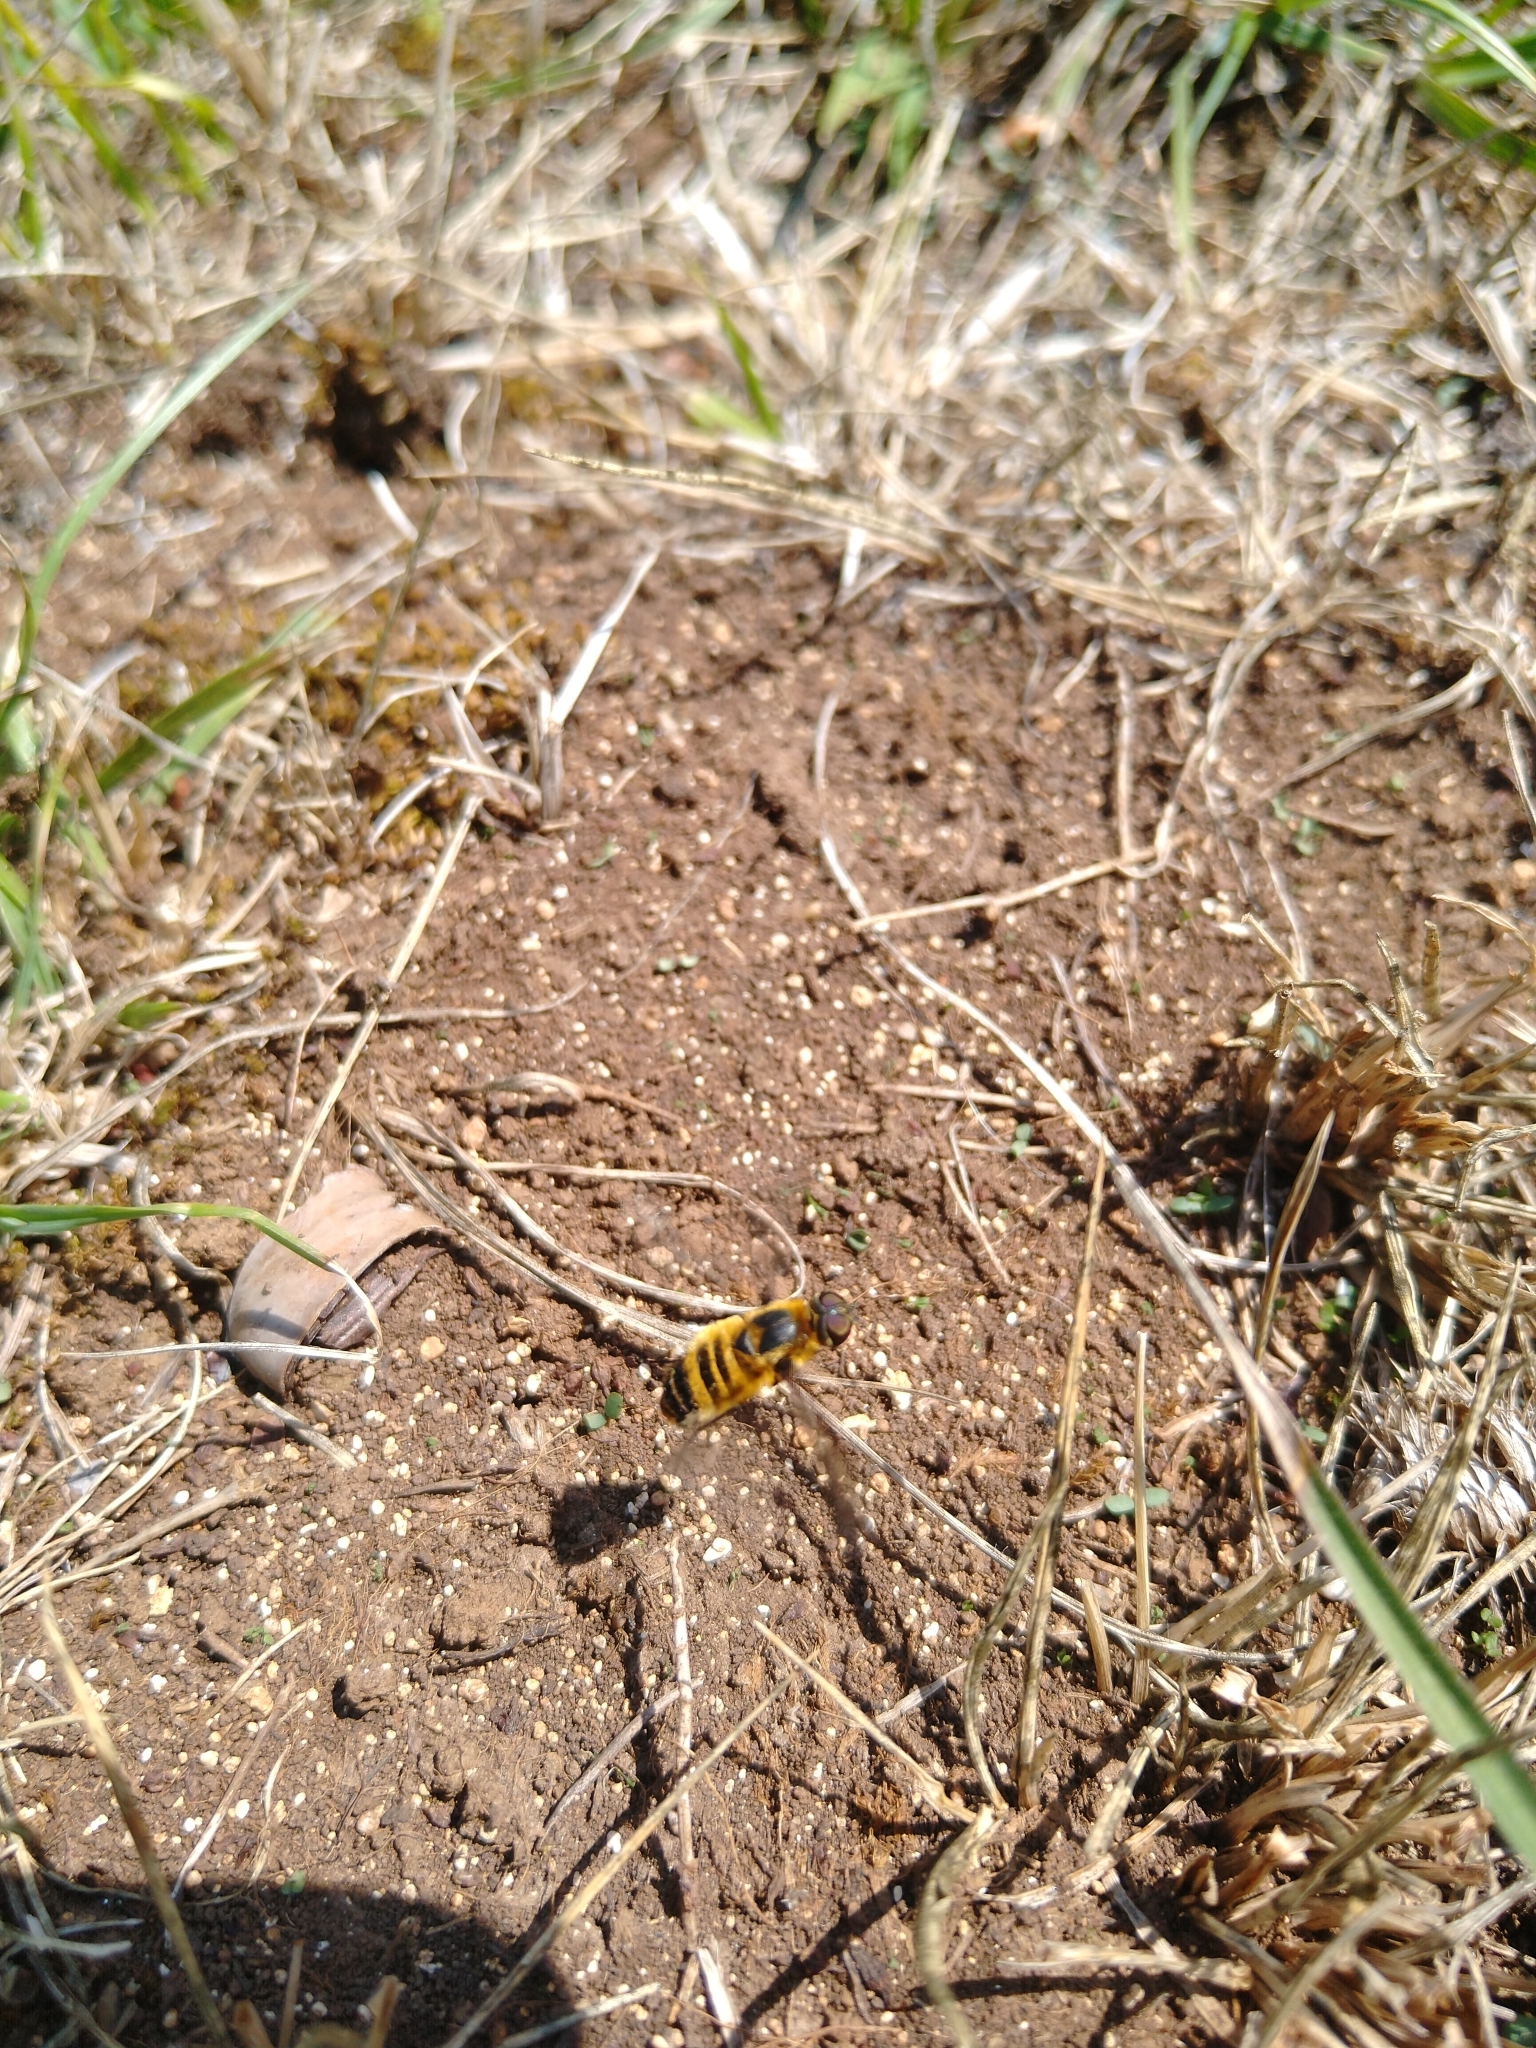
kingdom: Animalia
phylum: Arthropoda
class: Insecta
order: Diptera
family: Bombyliidae
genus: Villa
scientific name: Villa cingulata
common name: Downland villa
